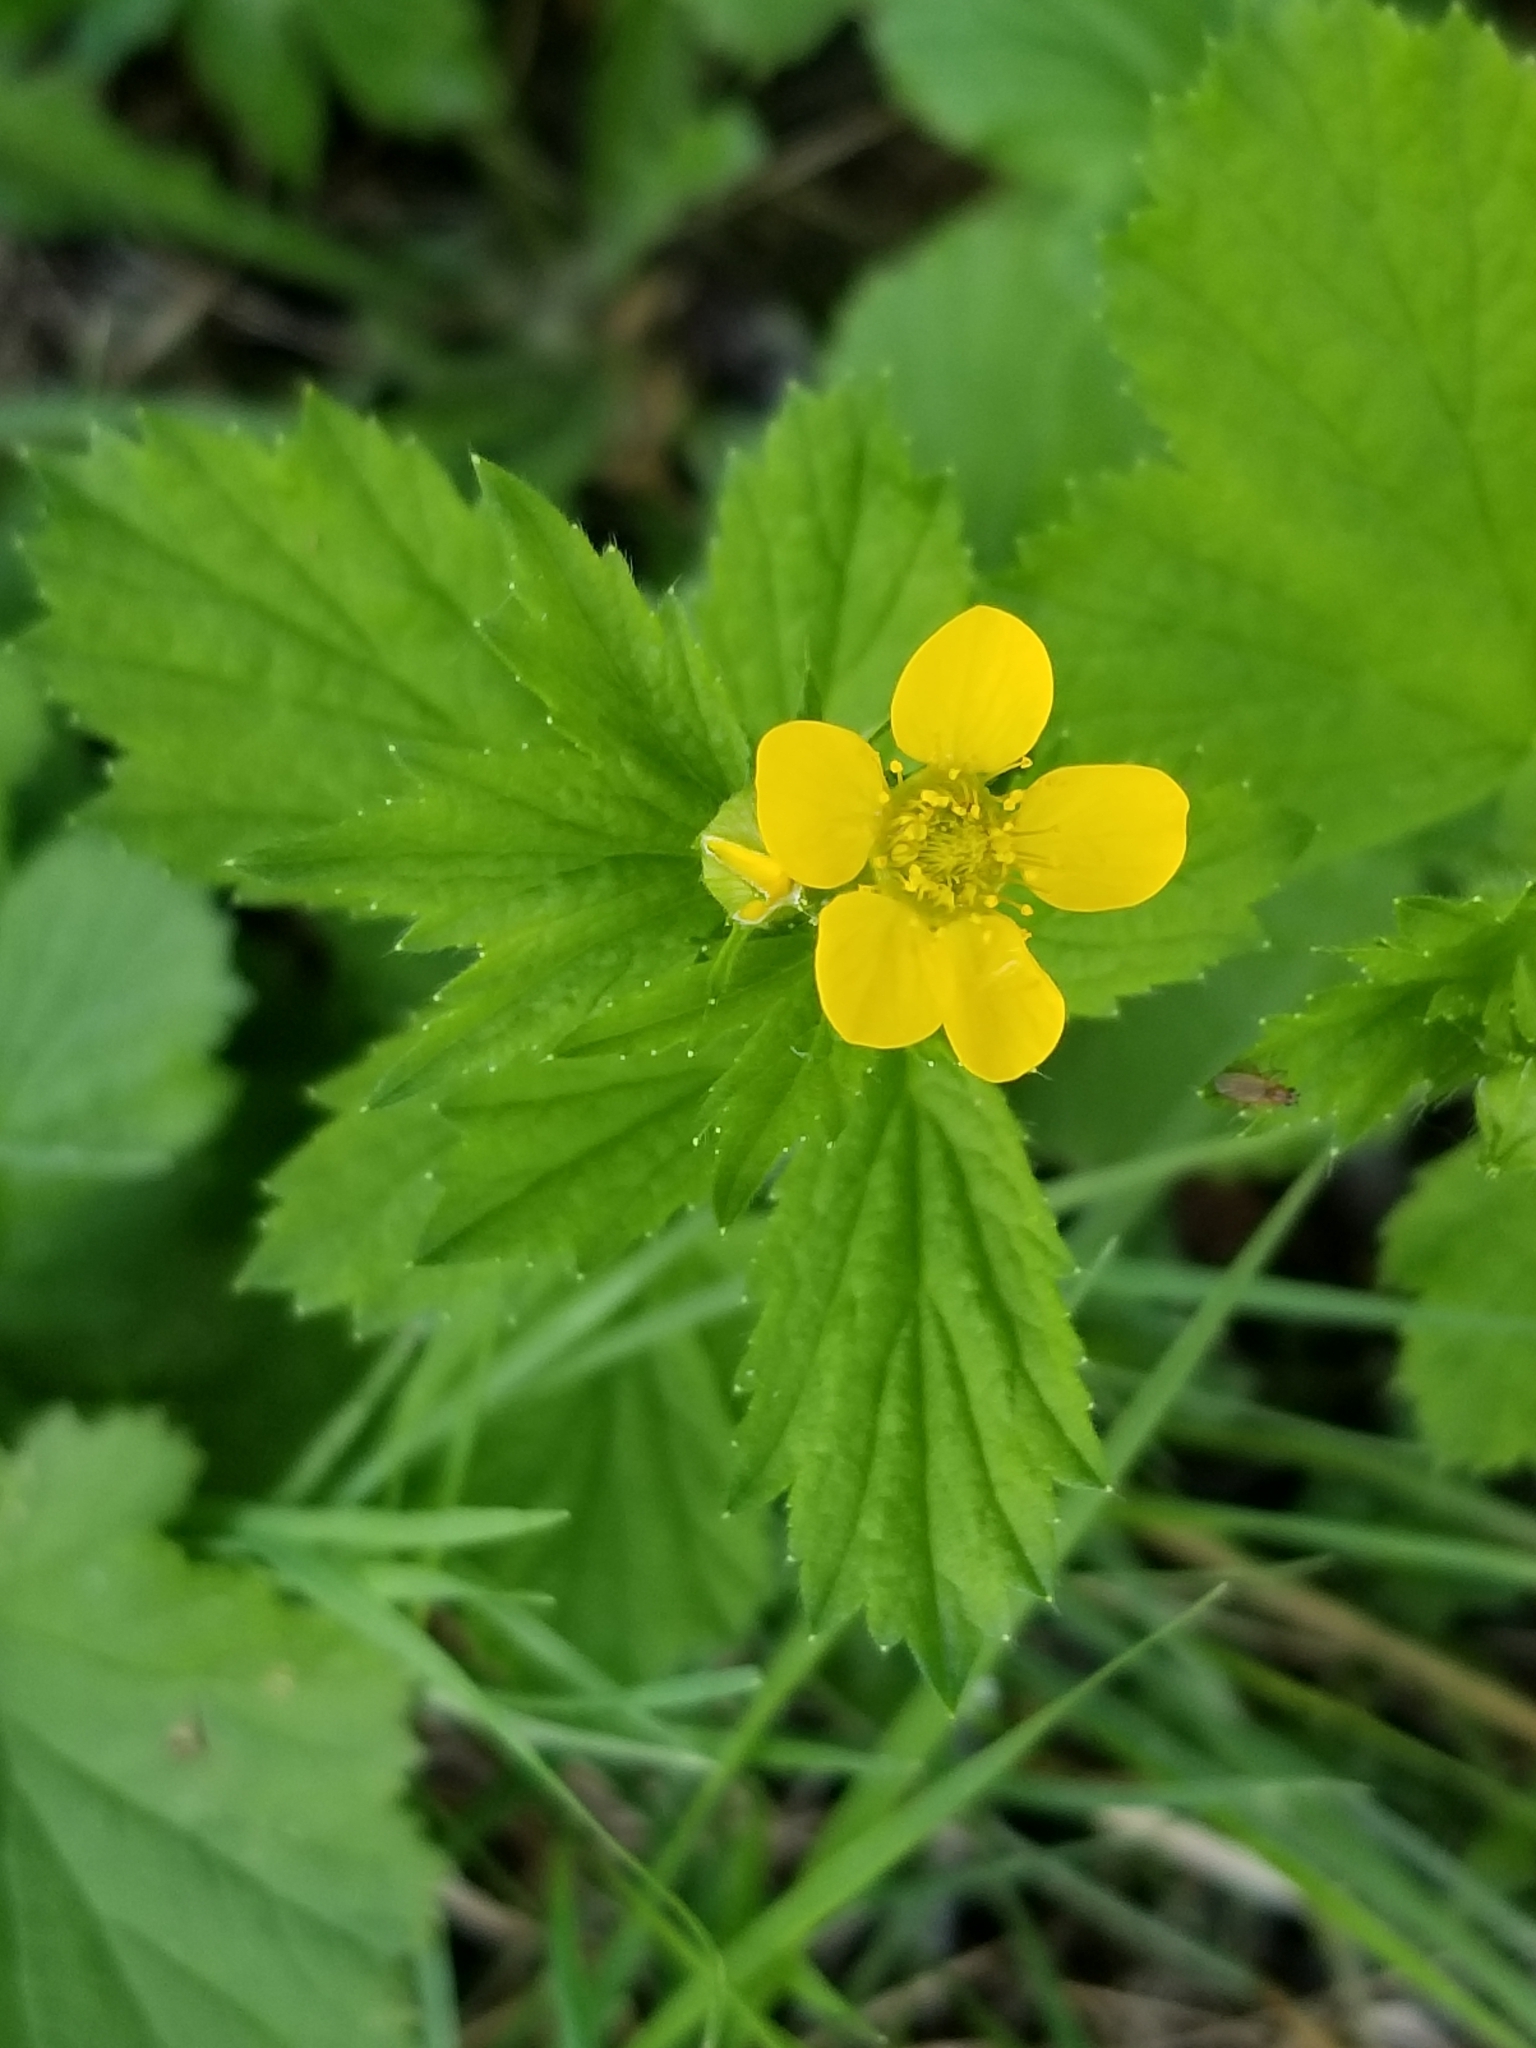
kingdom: Plantae
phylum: Tracheophyta
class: Magnoliopsida
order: Rosales
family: Rosaceae
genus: Geum
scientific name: Geum macrophyllum
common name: Large-leaved avens
